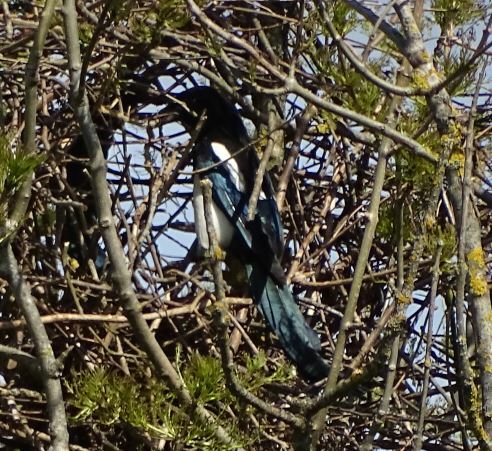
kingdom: Animalia
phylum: Chordata
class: Aves
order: Passeriformes
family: Corvidae
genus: Pica
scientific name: Pica pica
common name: Eurasian magpie
